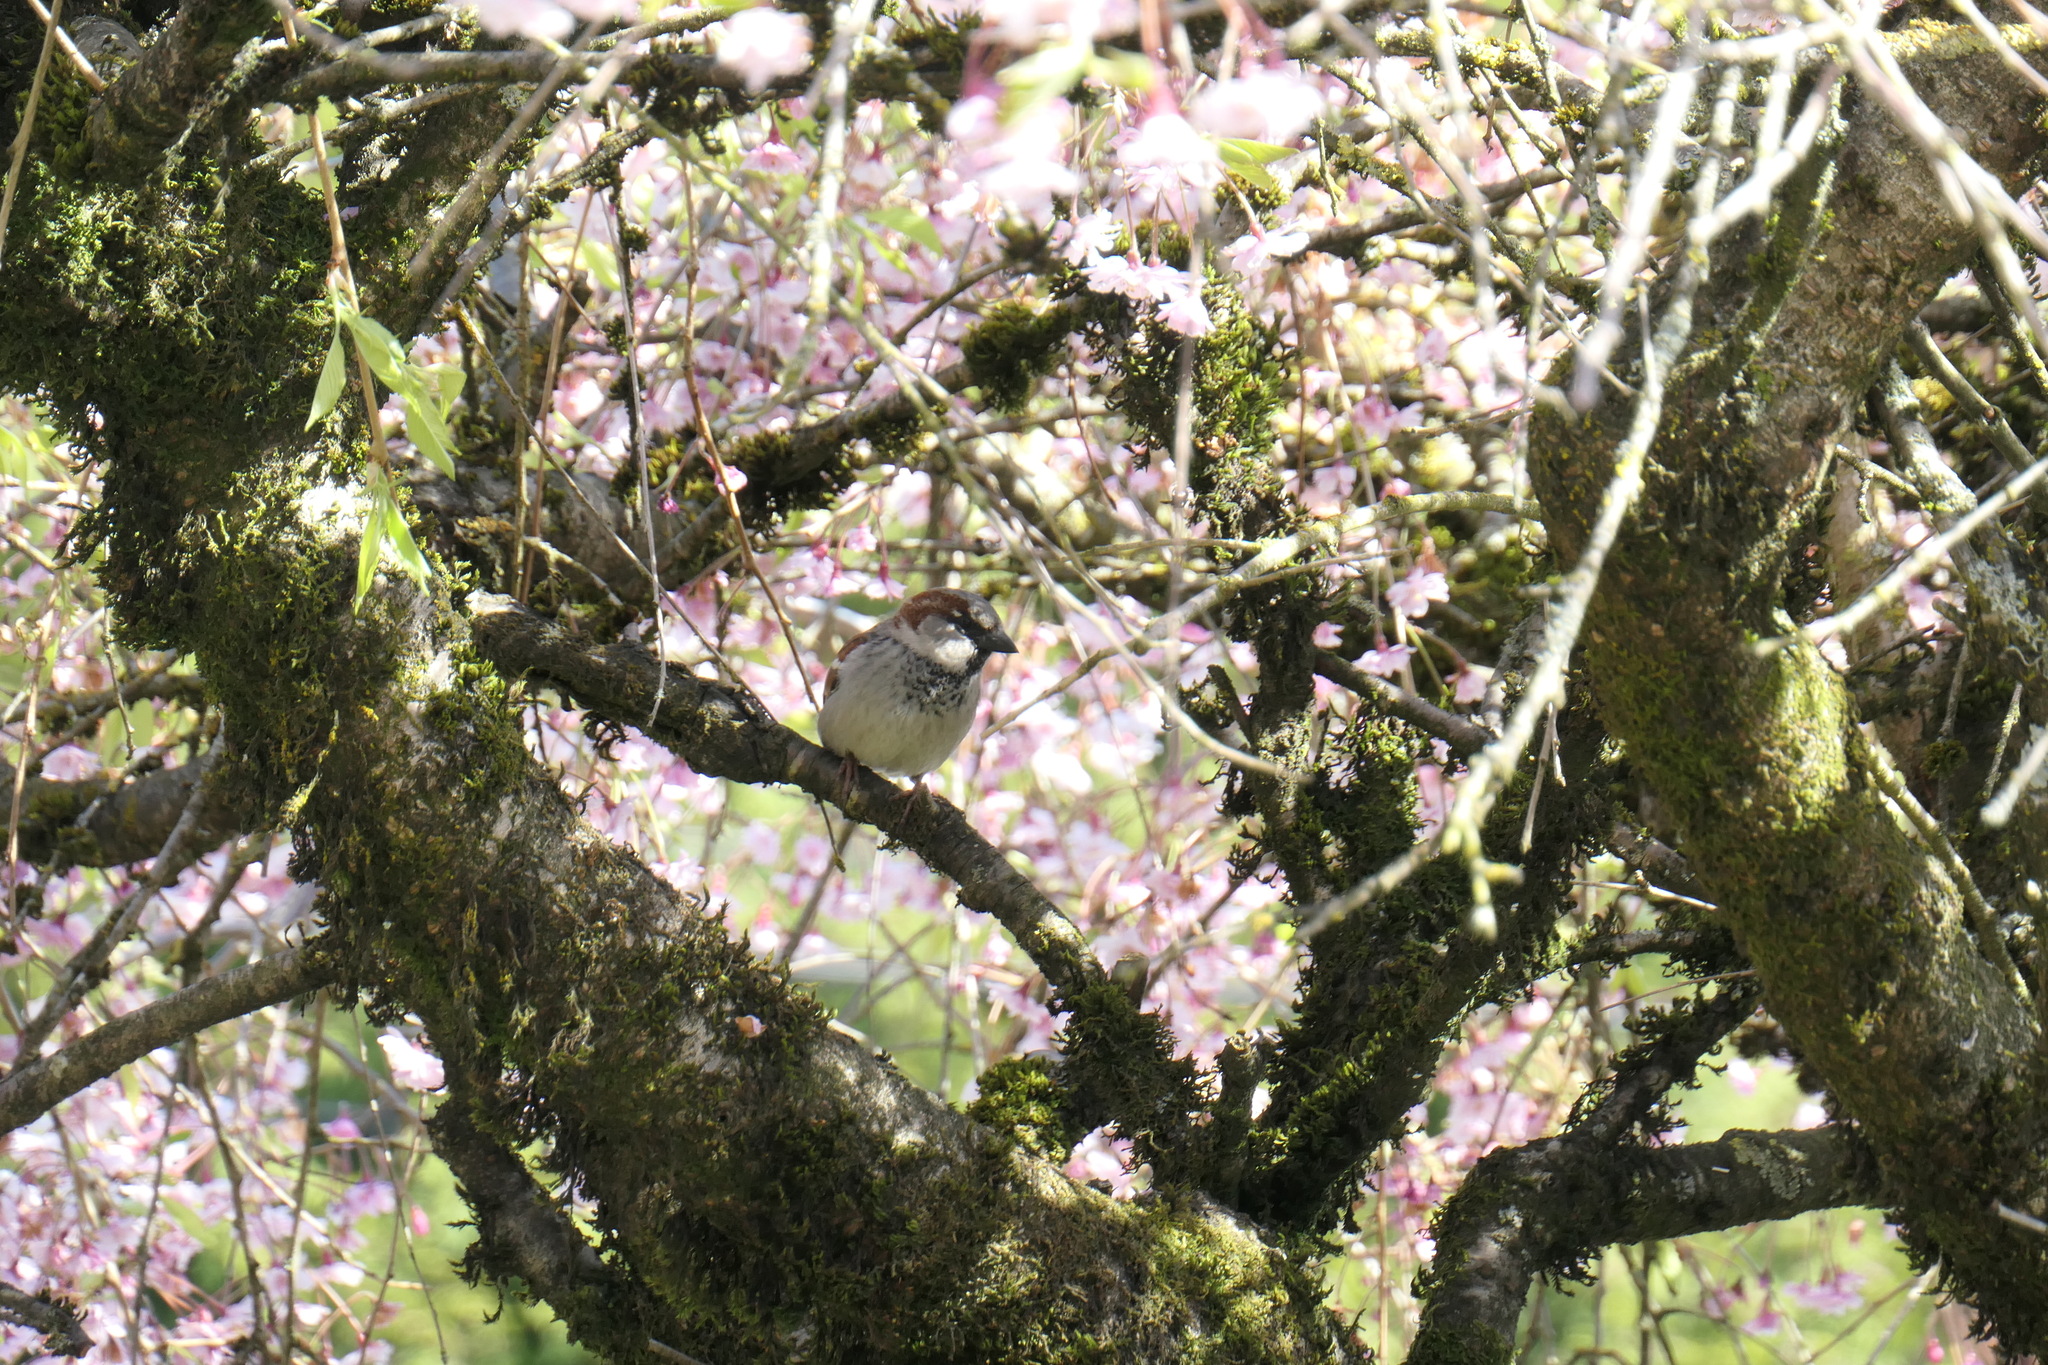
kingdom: Animalia
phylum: Chordata
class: Aves
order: Passeriformes
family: Passeridae
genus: Passer
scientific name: Passer domesticus
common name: House sparrow
